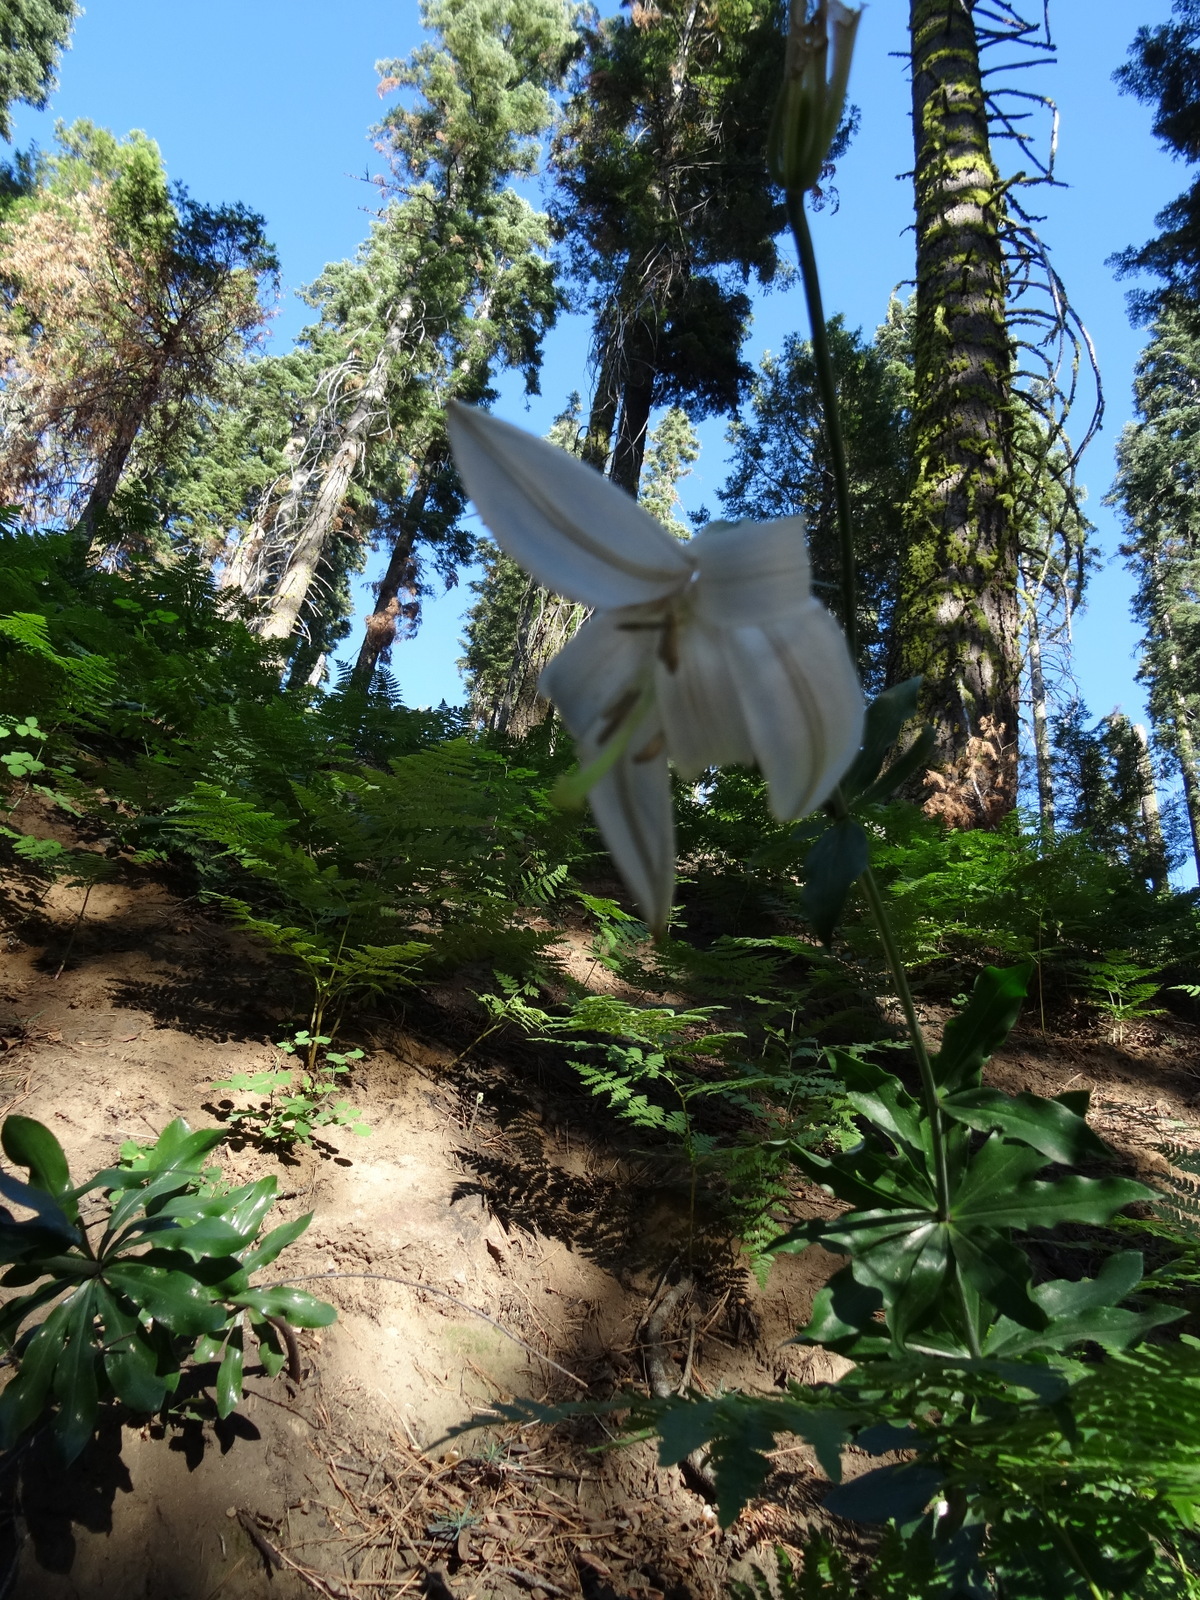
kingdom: Plantae
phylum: Tracheophyta
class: Liliopsida
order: Liliales
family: Liliaceae
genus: Lilium
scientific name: Lilium washingtonianum
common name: Washington lily
